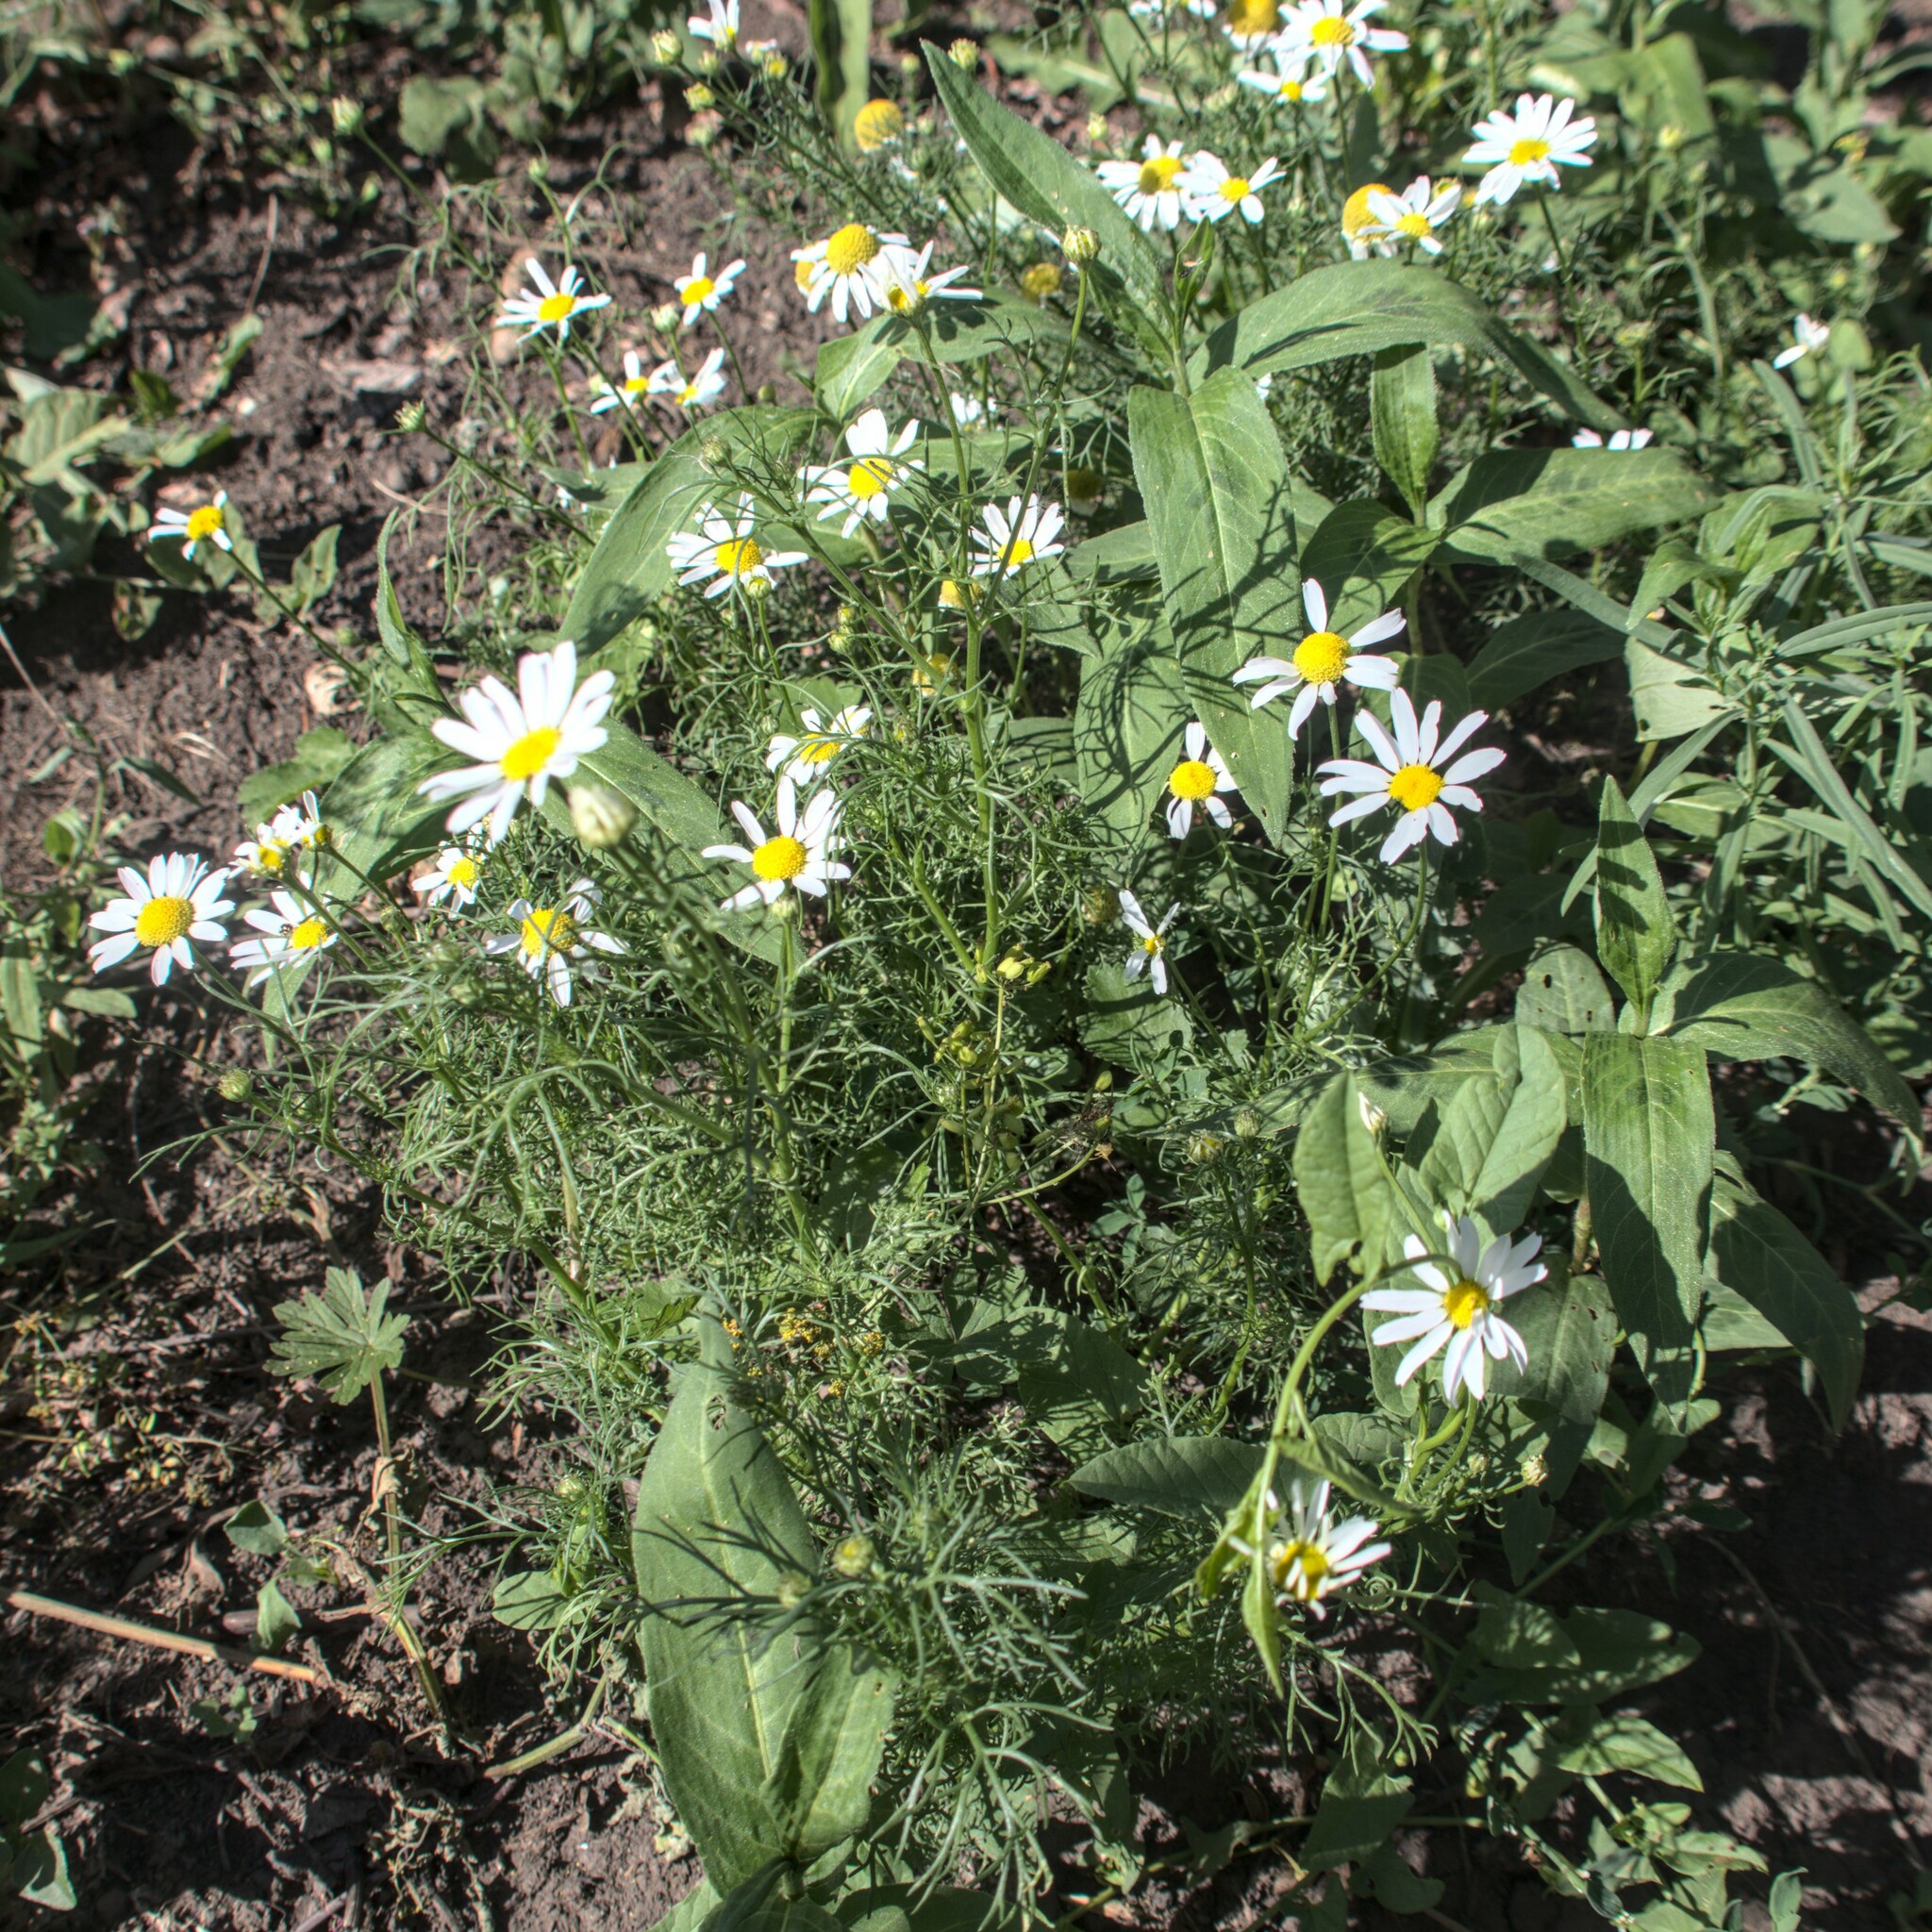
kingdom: Plantae
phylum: Tracheophyta
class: Magnoliopsida
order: Asterales
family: Asteraceae
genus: Tripleurospermum
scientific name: Tripleurospermum inodorum
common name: Scentless mayweed
